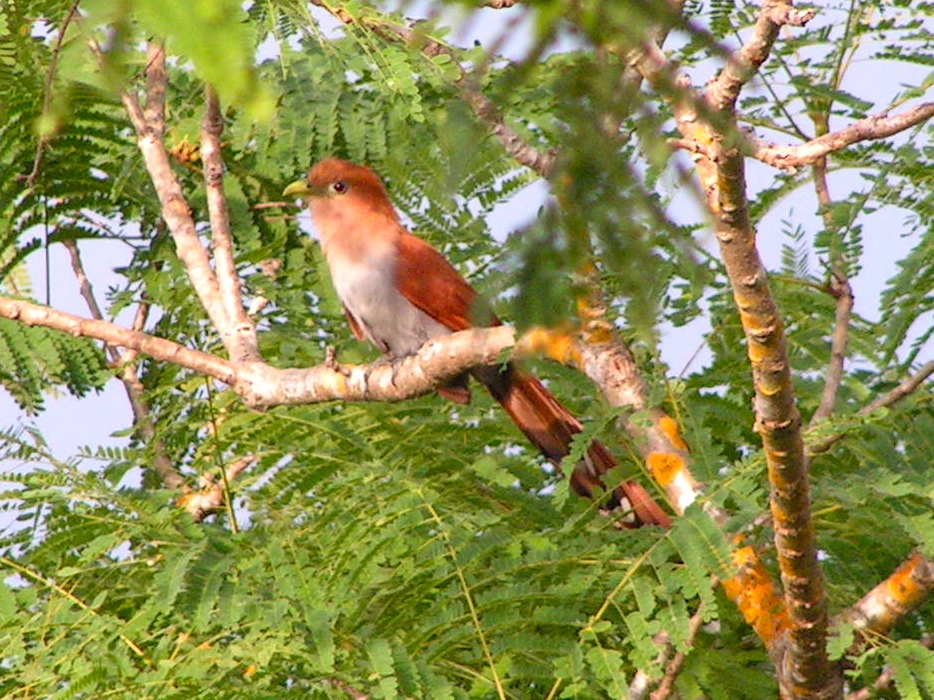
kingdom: Animalia
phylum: Chordata
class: Aves
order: Cuculiformes
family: Cuculidae
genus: Piaya
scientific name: Piaya cayana
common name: Squirrel cuckoo
